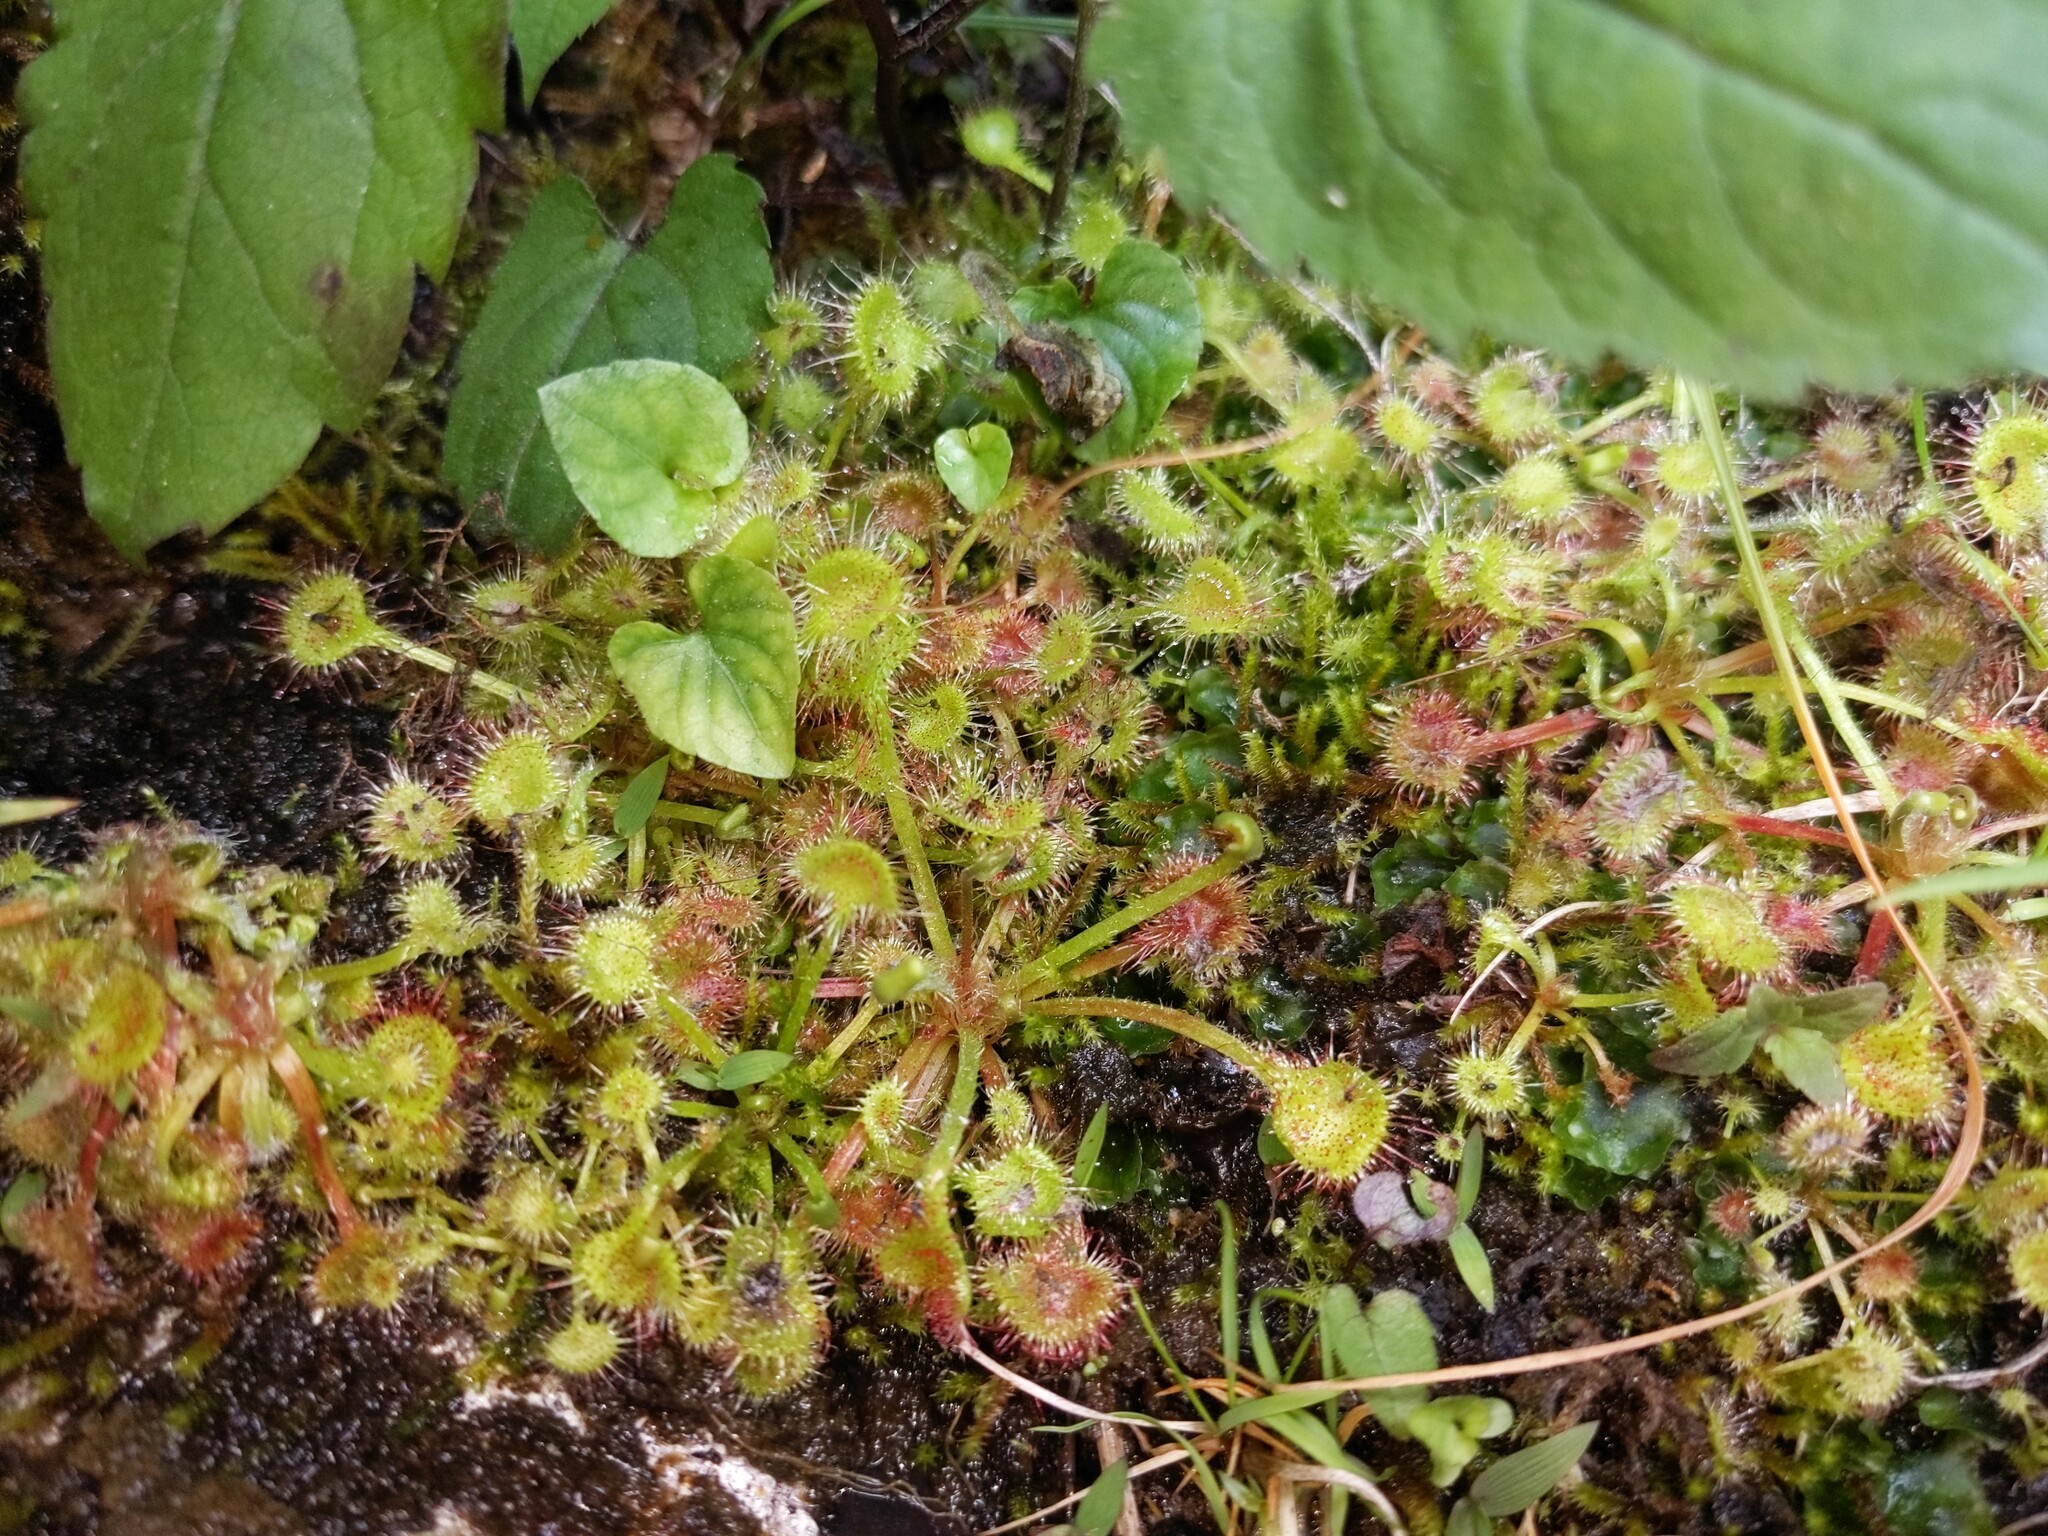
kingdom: Plantae
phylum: Tracheophyta
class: Magnoliopsida
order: Caryophyllales
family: Droseraceae
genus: Drosera
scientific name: Drosera rotundifolia
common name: Round-leaved sundew
